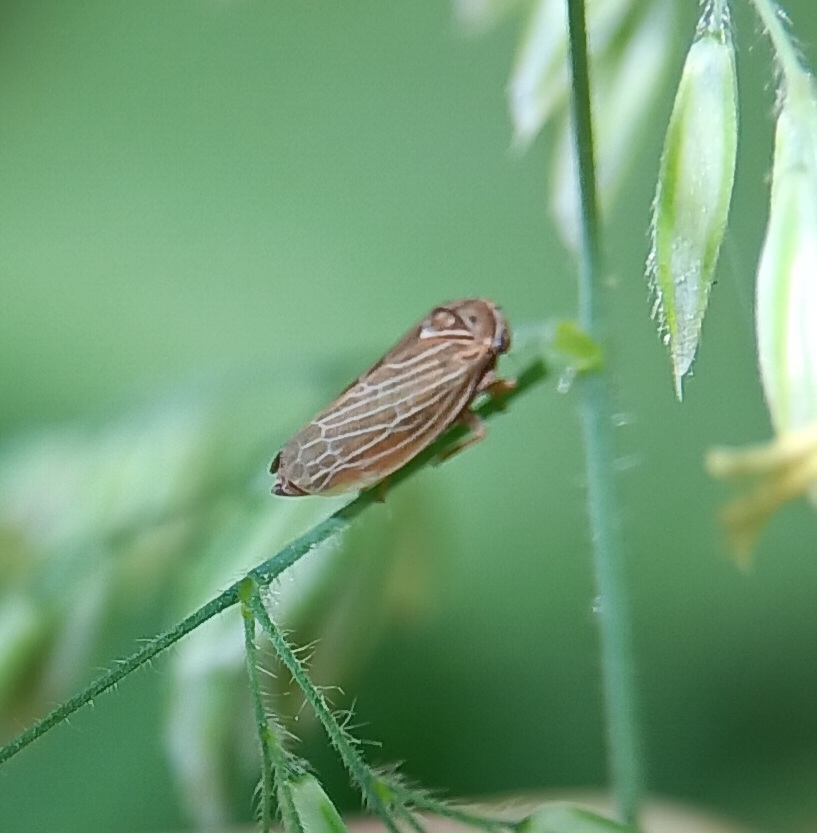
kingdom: Animalia
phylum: Arthropoda
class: Insecta
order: Hemiptera
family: Cicadellidae
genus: Agalliota
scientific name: Agalliota quadripunctata
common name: The four-spotted clover leafhopper
